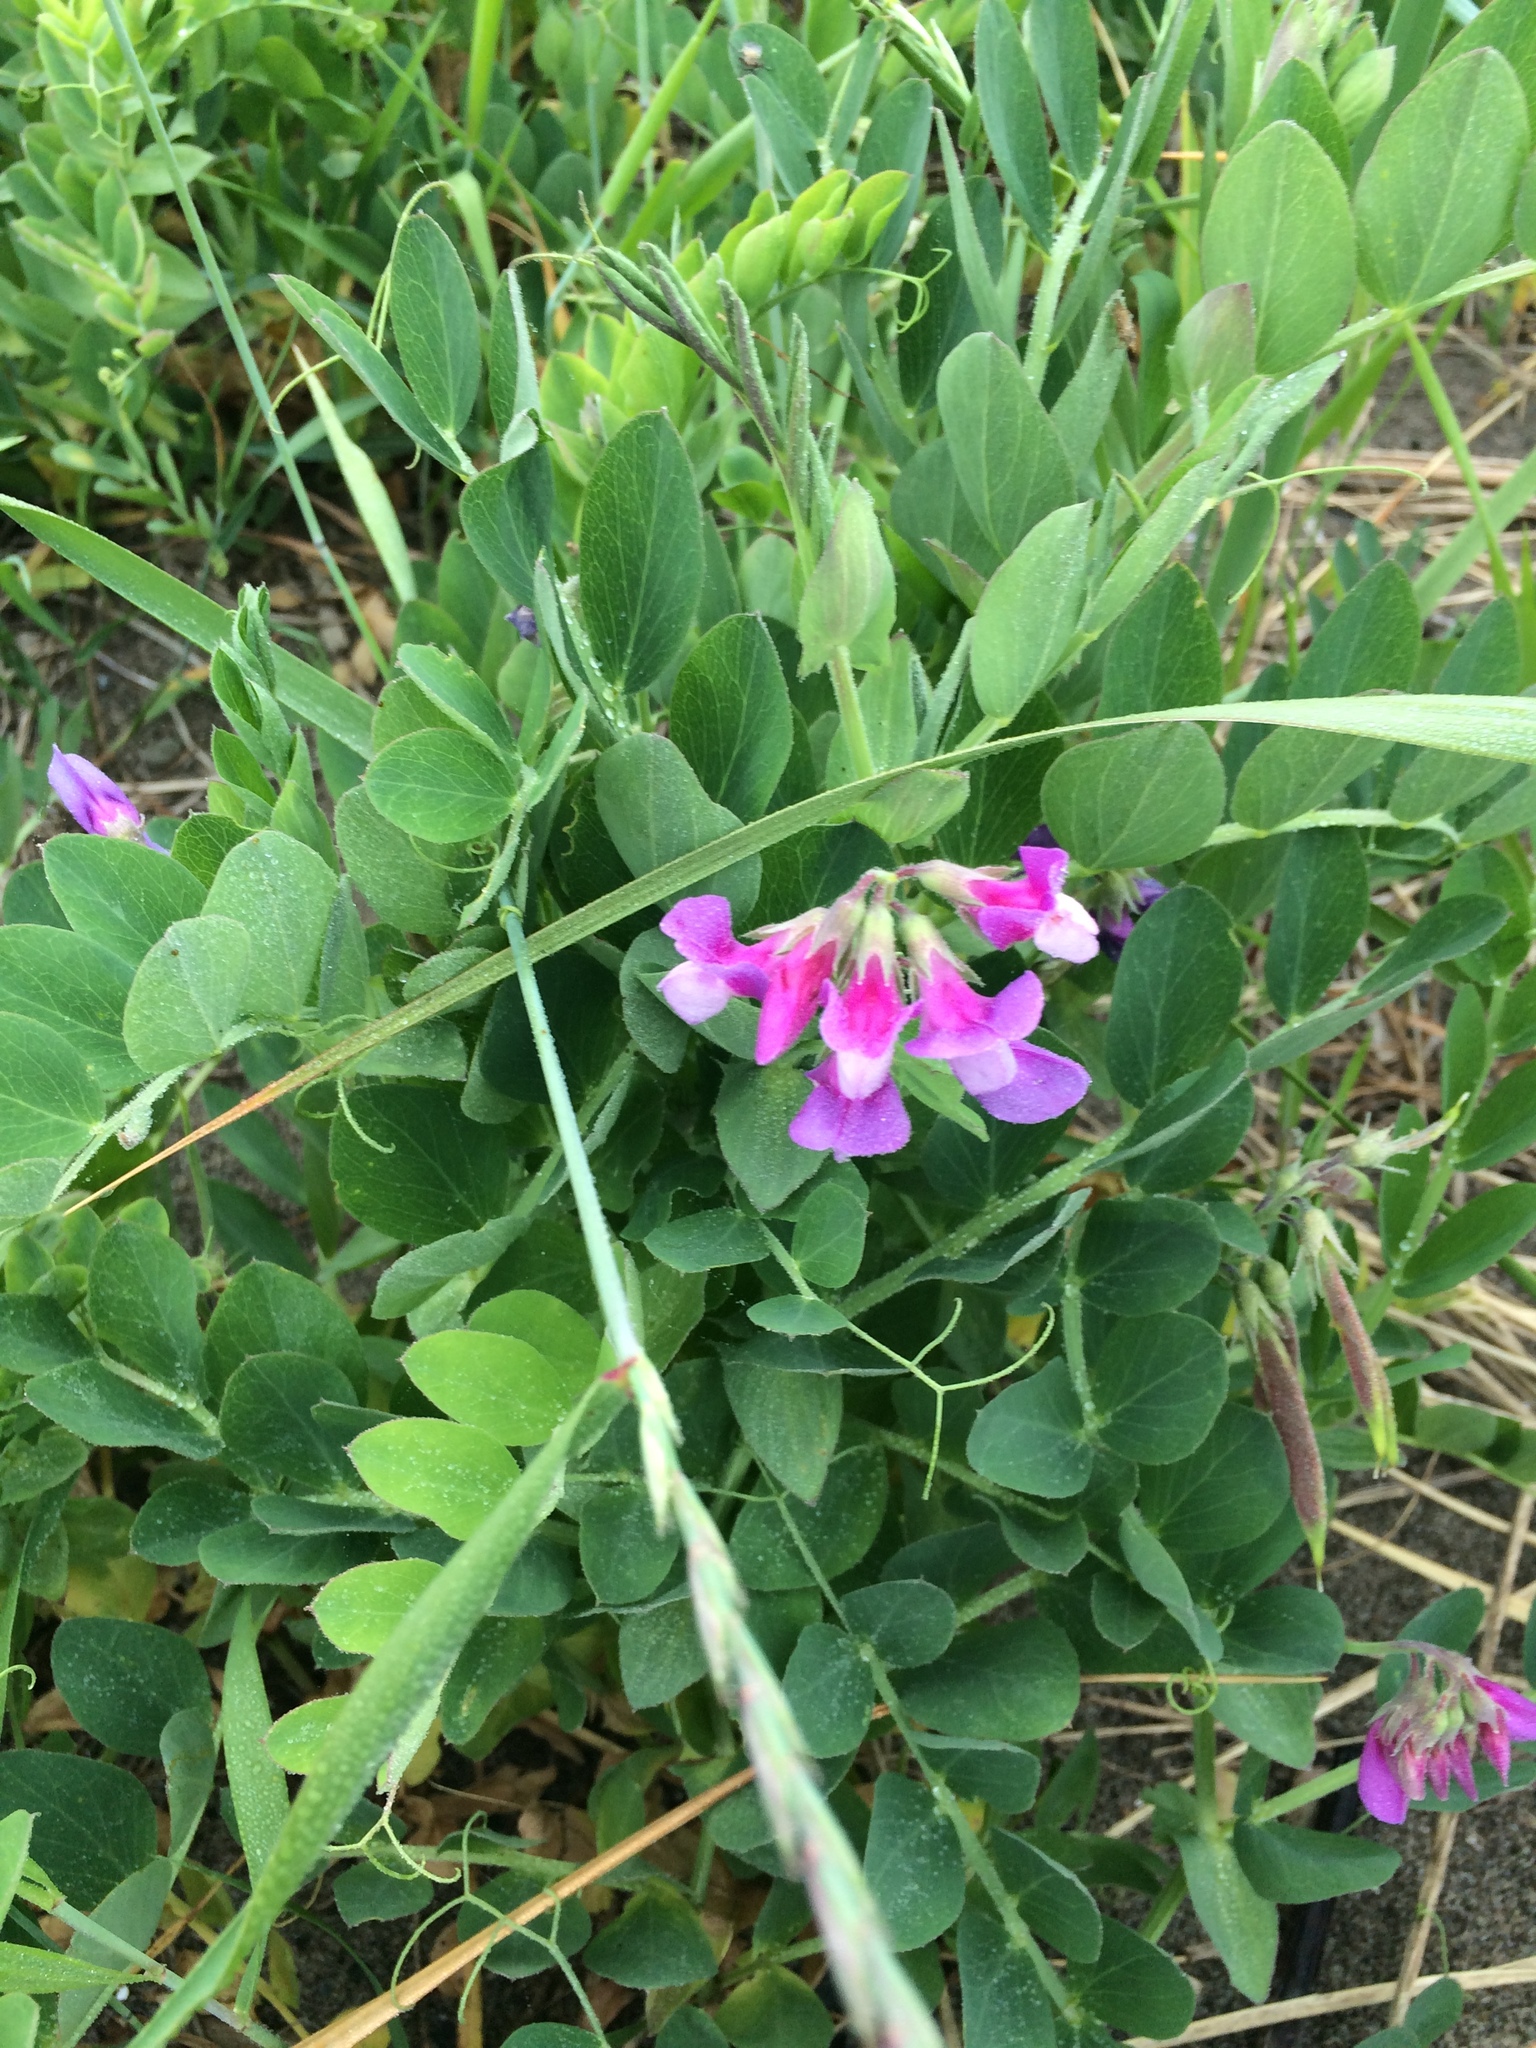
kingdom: Plantae
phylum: Tracheophyta
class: Magnoliopsida
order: Fabales
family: Fabaceae
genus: Lathyrus
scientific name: Lathyrus japonicus
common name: Sea pea
